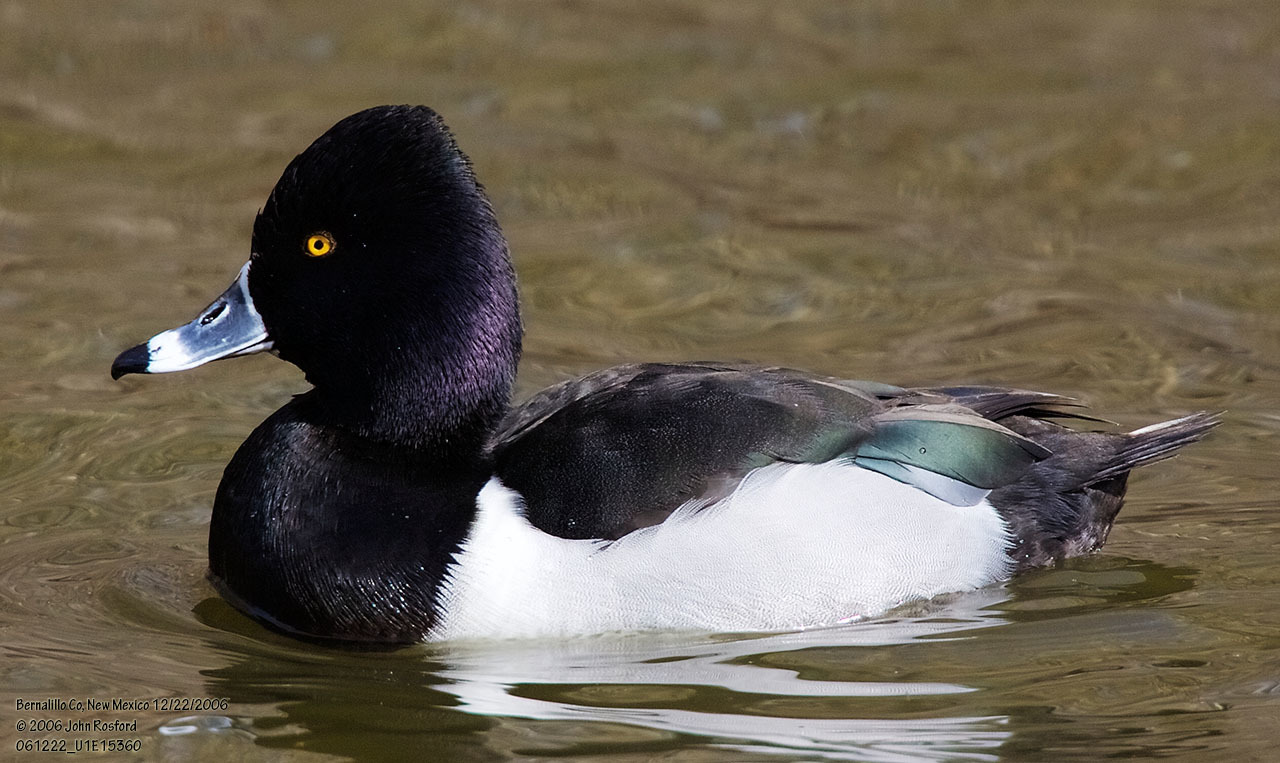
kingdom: Animalia
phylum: Chordata
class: Aves
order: Anseriformes
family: Anatidae
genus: Aythya
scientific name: Aythya collaris
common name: Ring-necked duck
